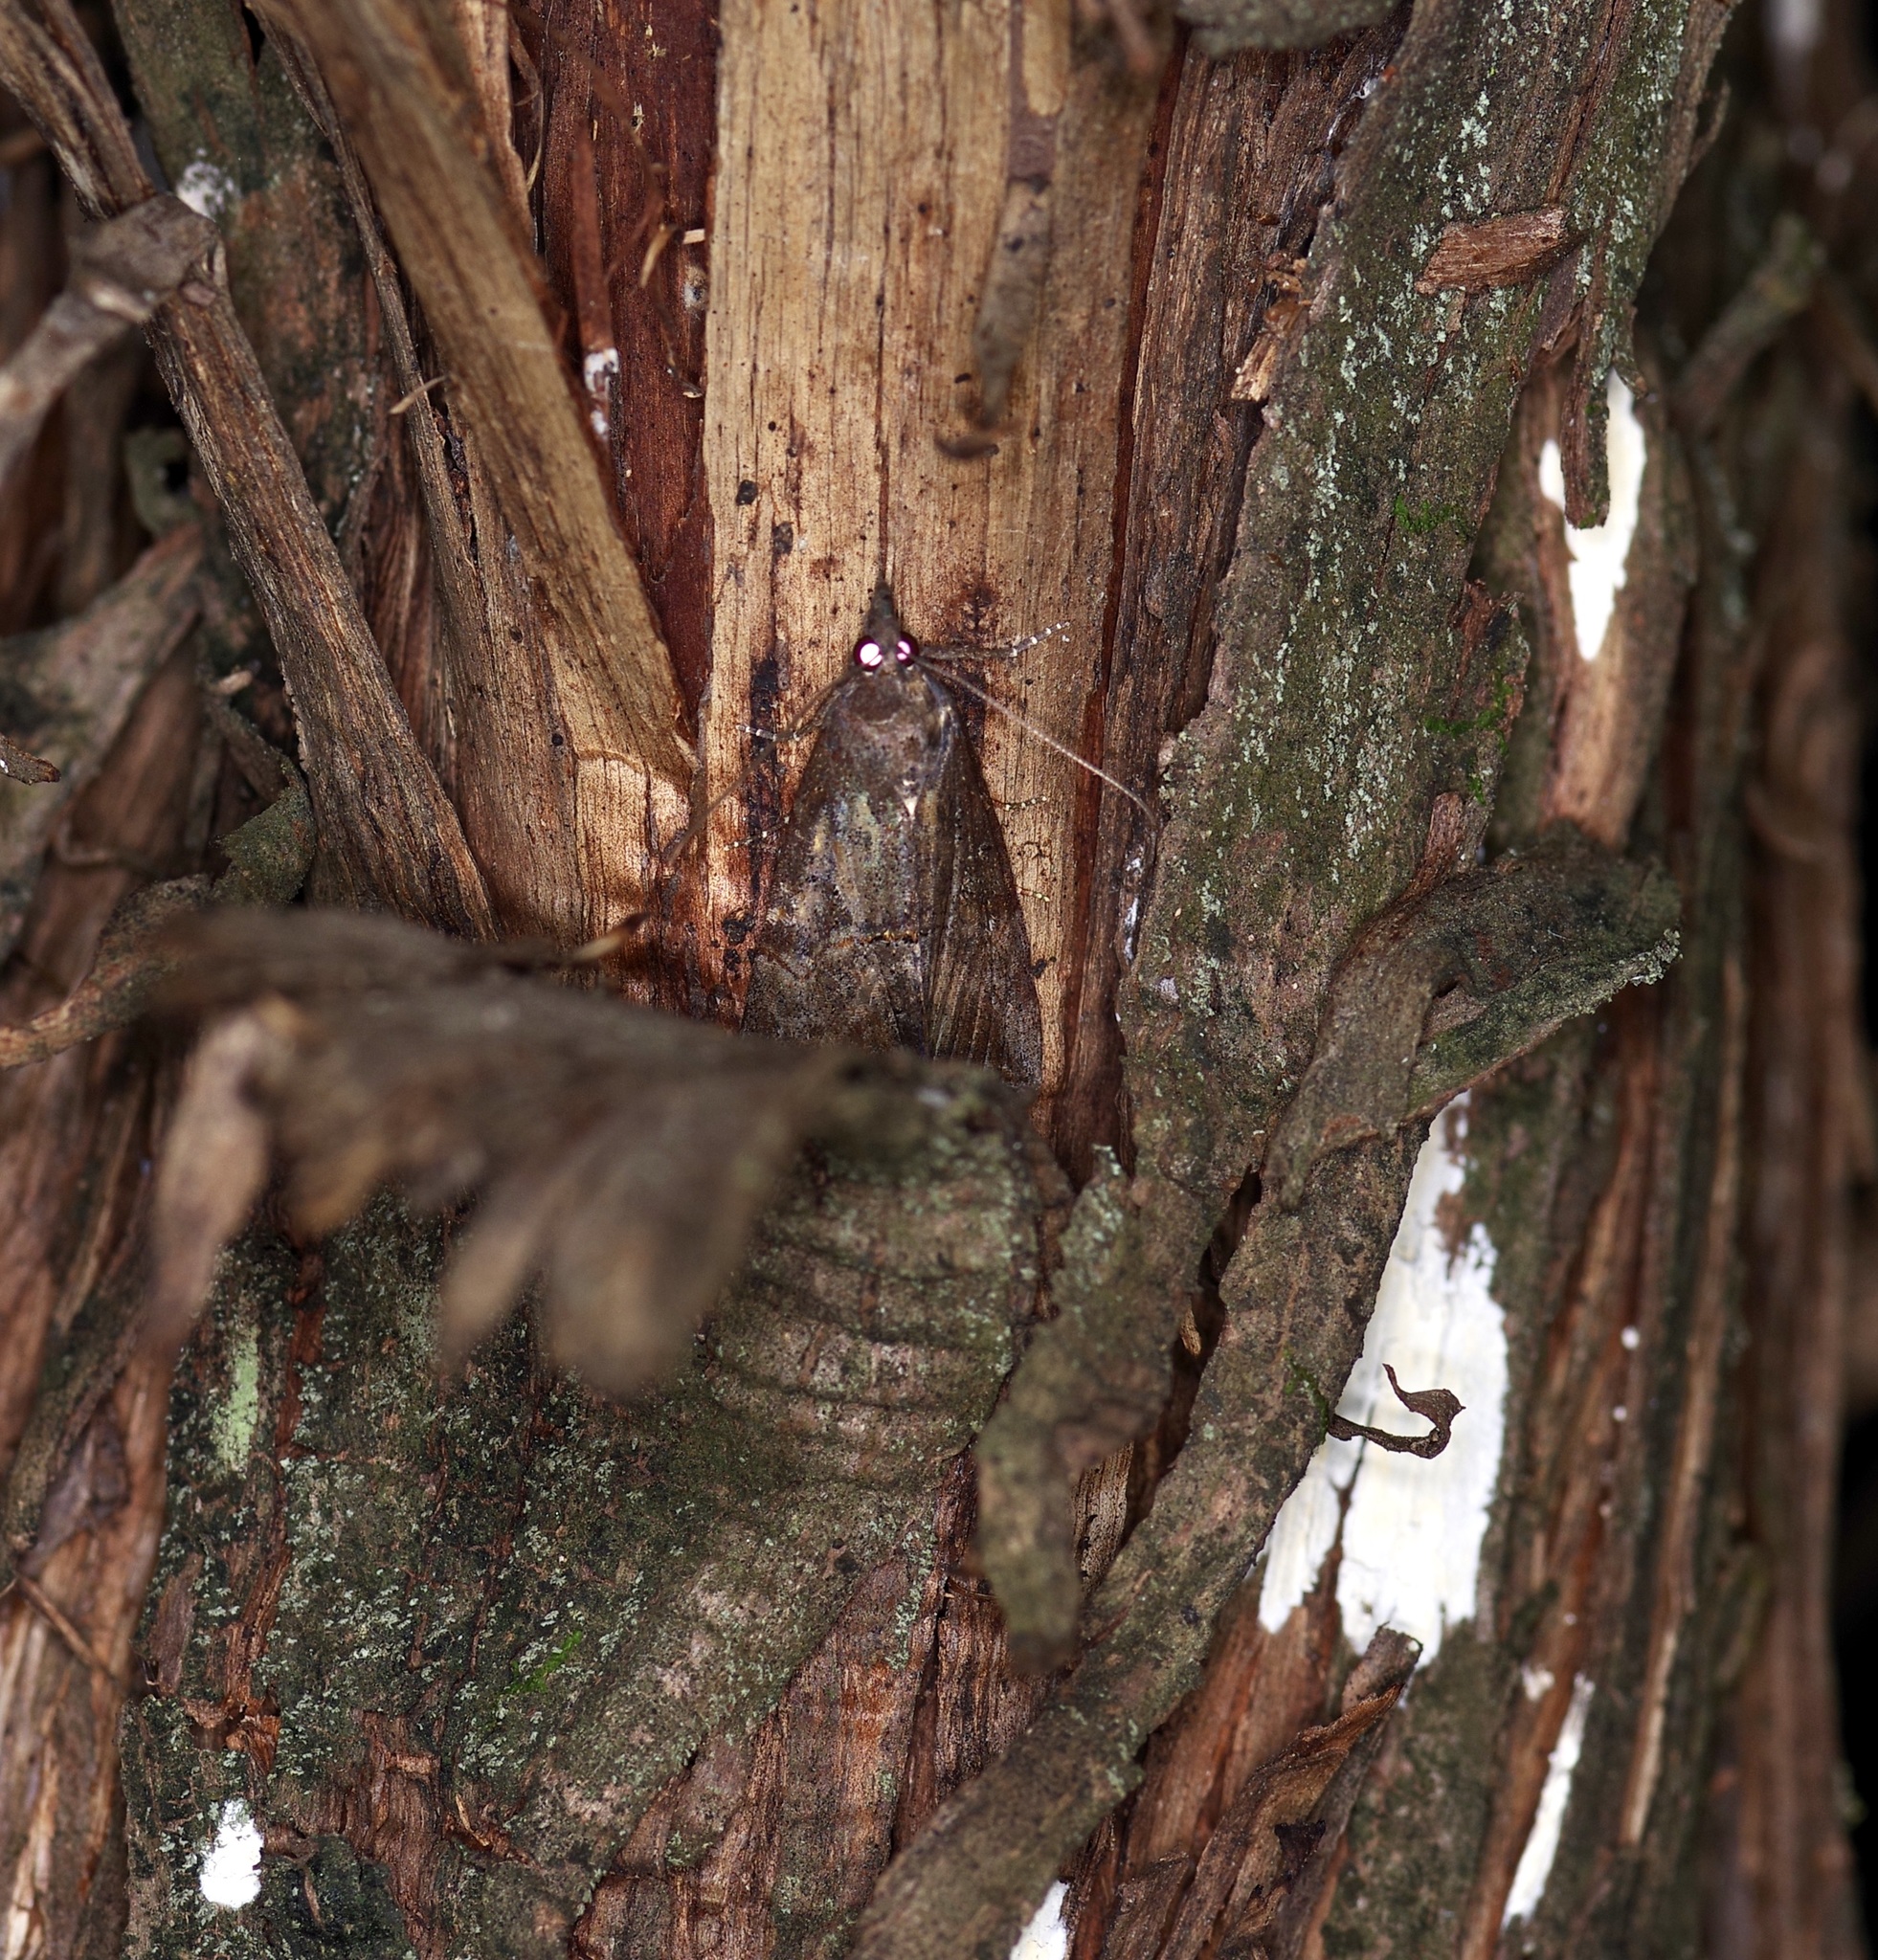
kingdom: Animalia
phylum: Arthropoda
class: Insecta
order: Lepidoptera
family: Erebidae
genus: Hypena
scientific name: Hypena scabra
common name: Green cloverworm
